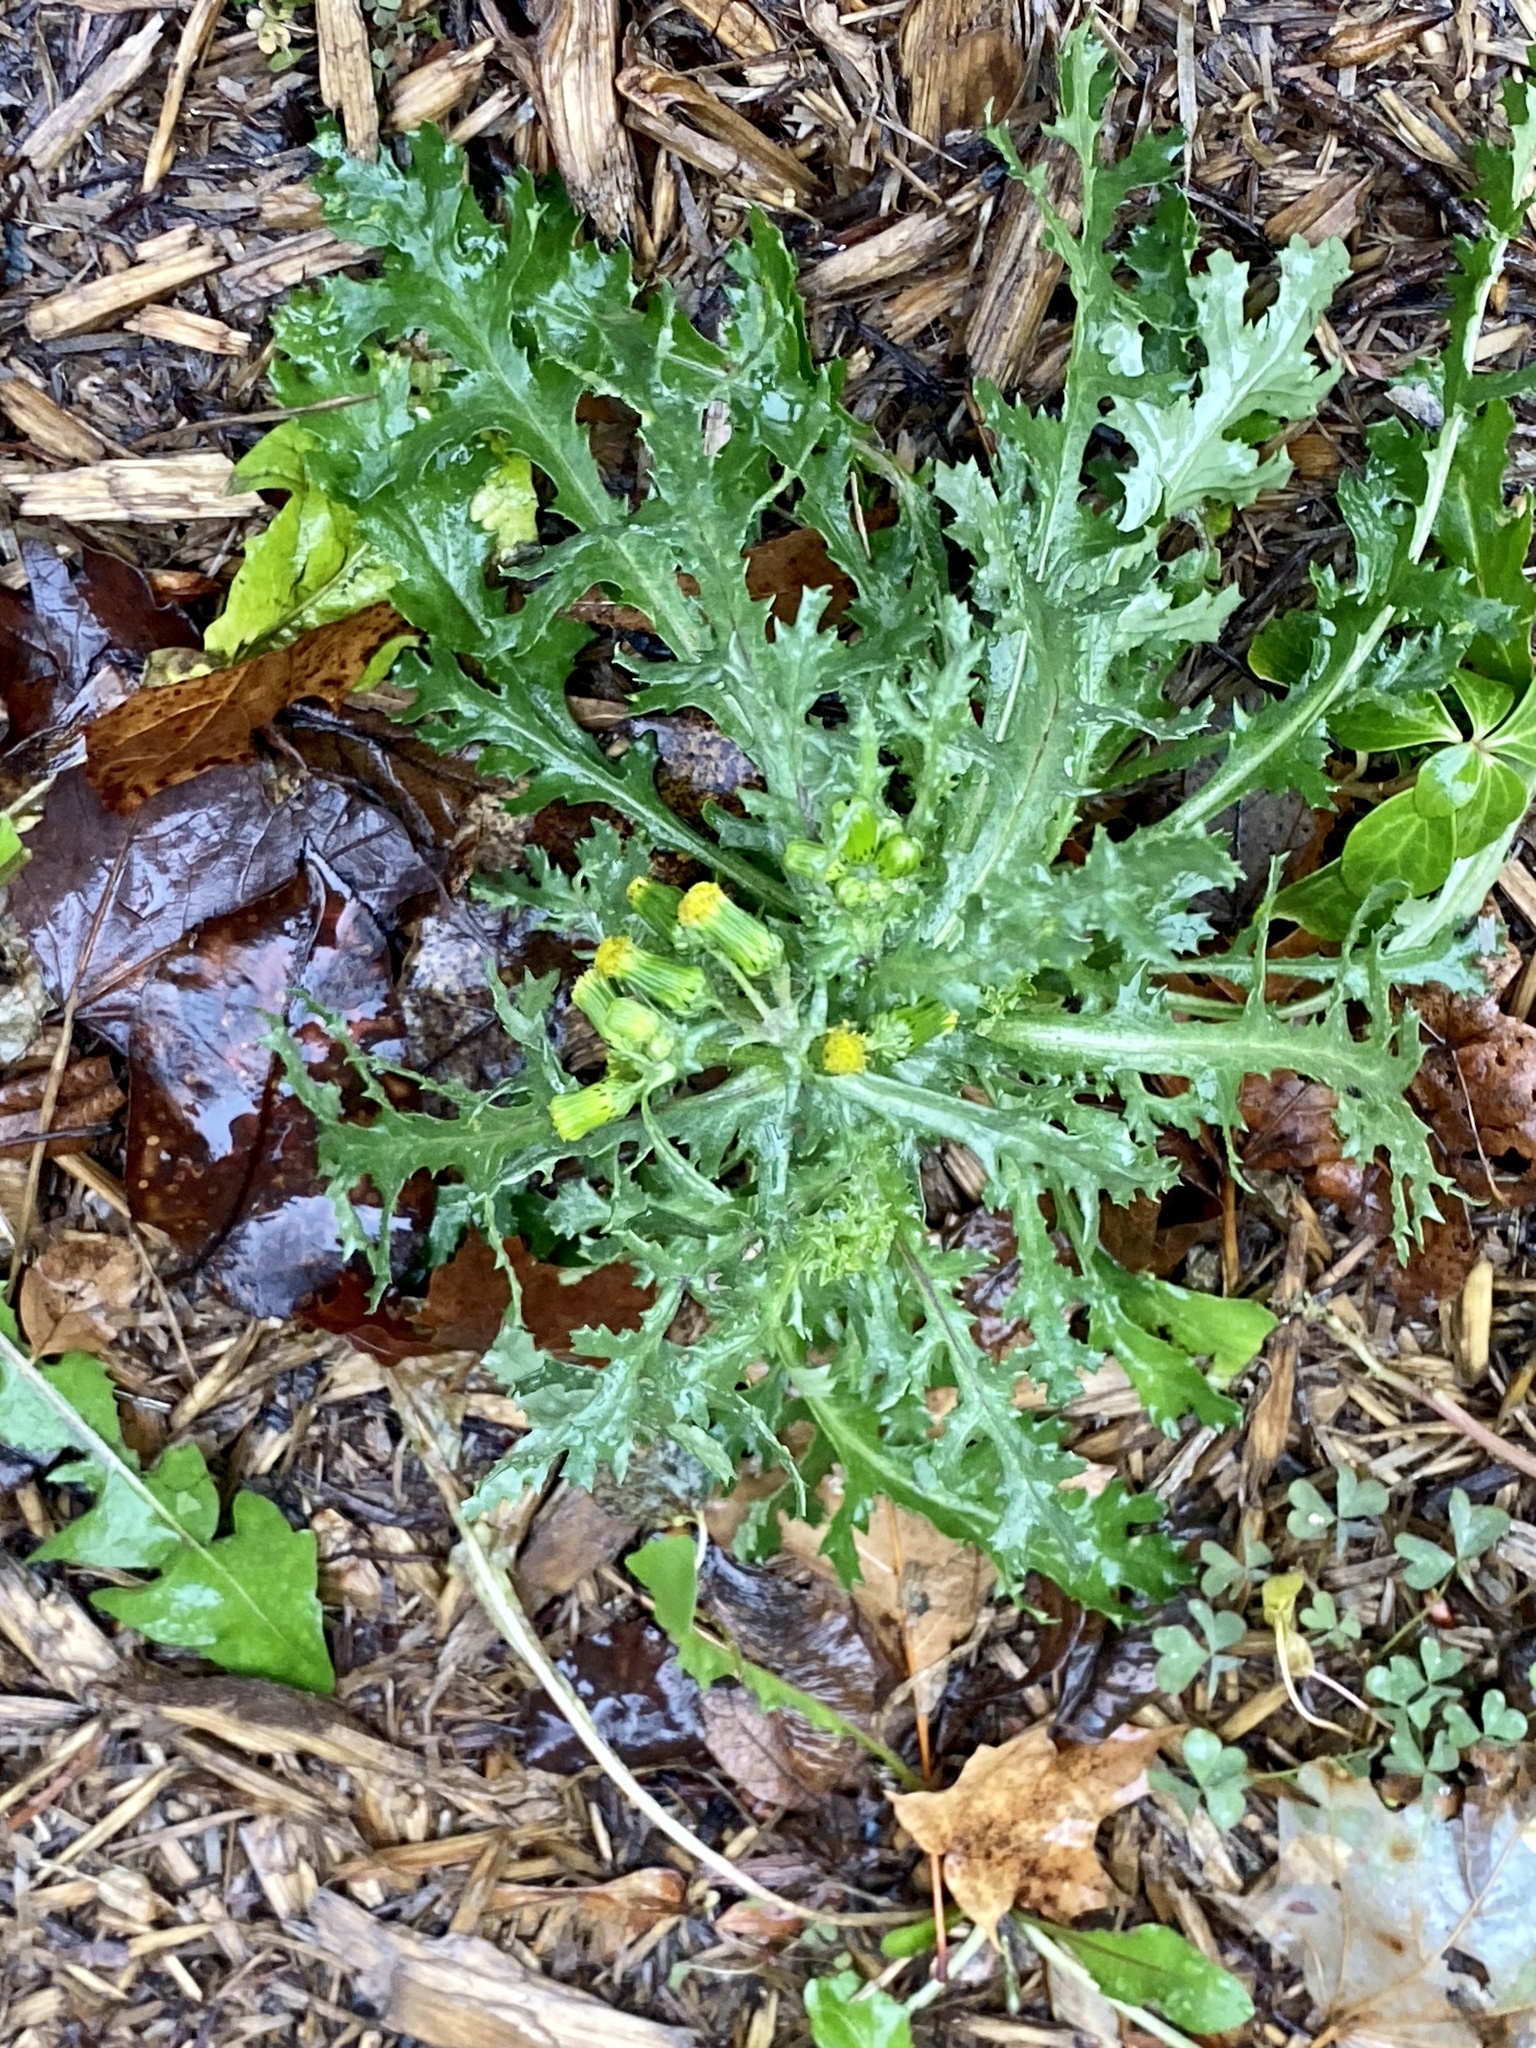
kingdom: Plantae
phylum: Tracheophyta
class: Magnoliopsida
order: Asterales
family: Asteraceae
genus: Senecio
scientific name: Senecio vulgaris
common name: Old-man-in-the-spring
